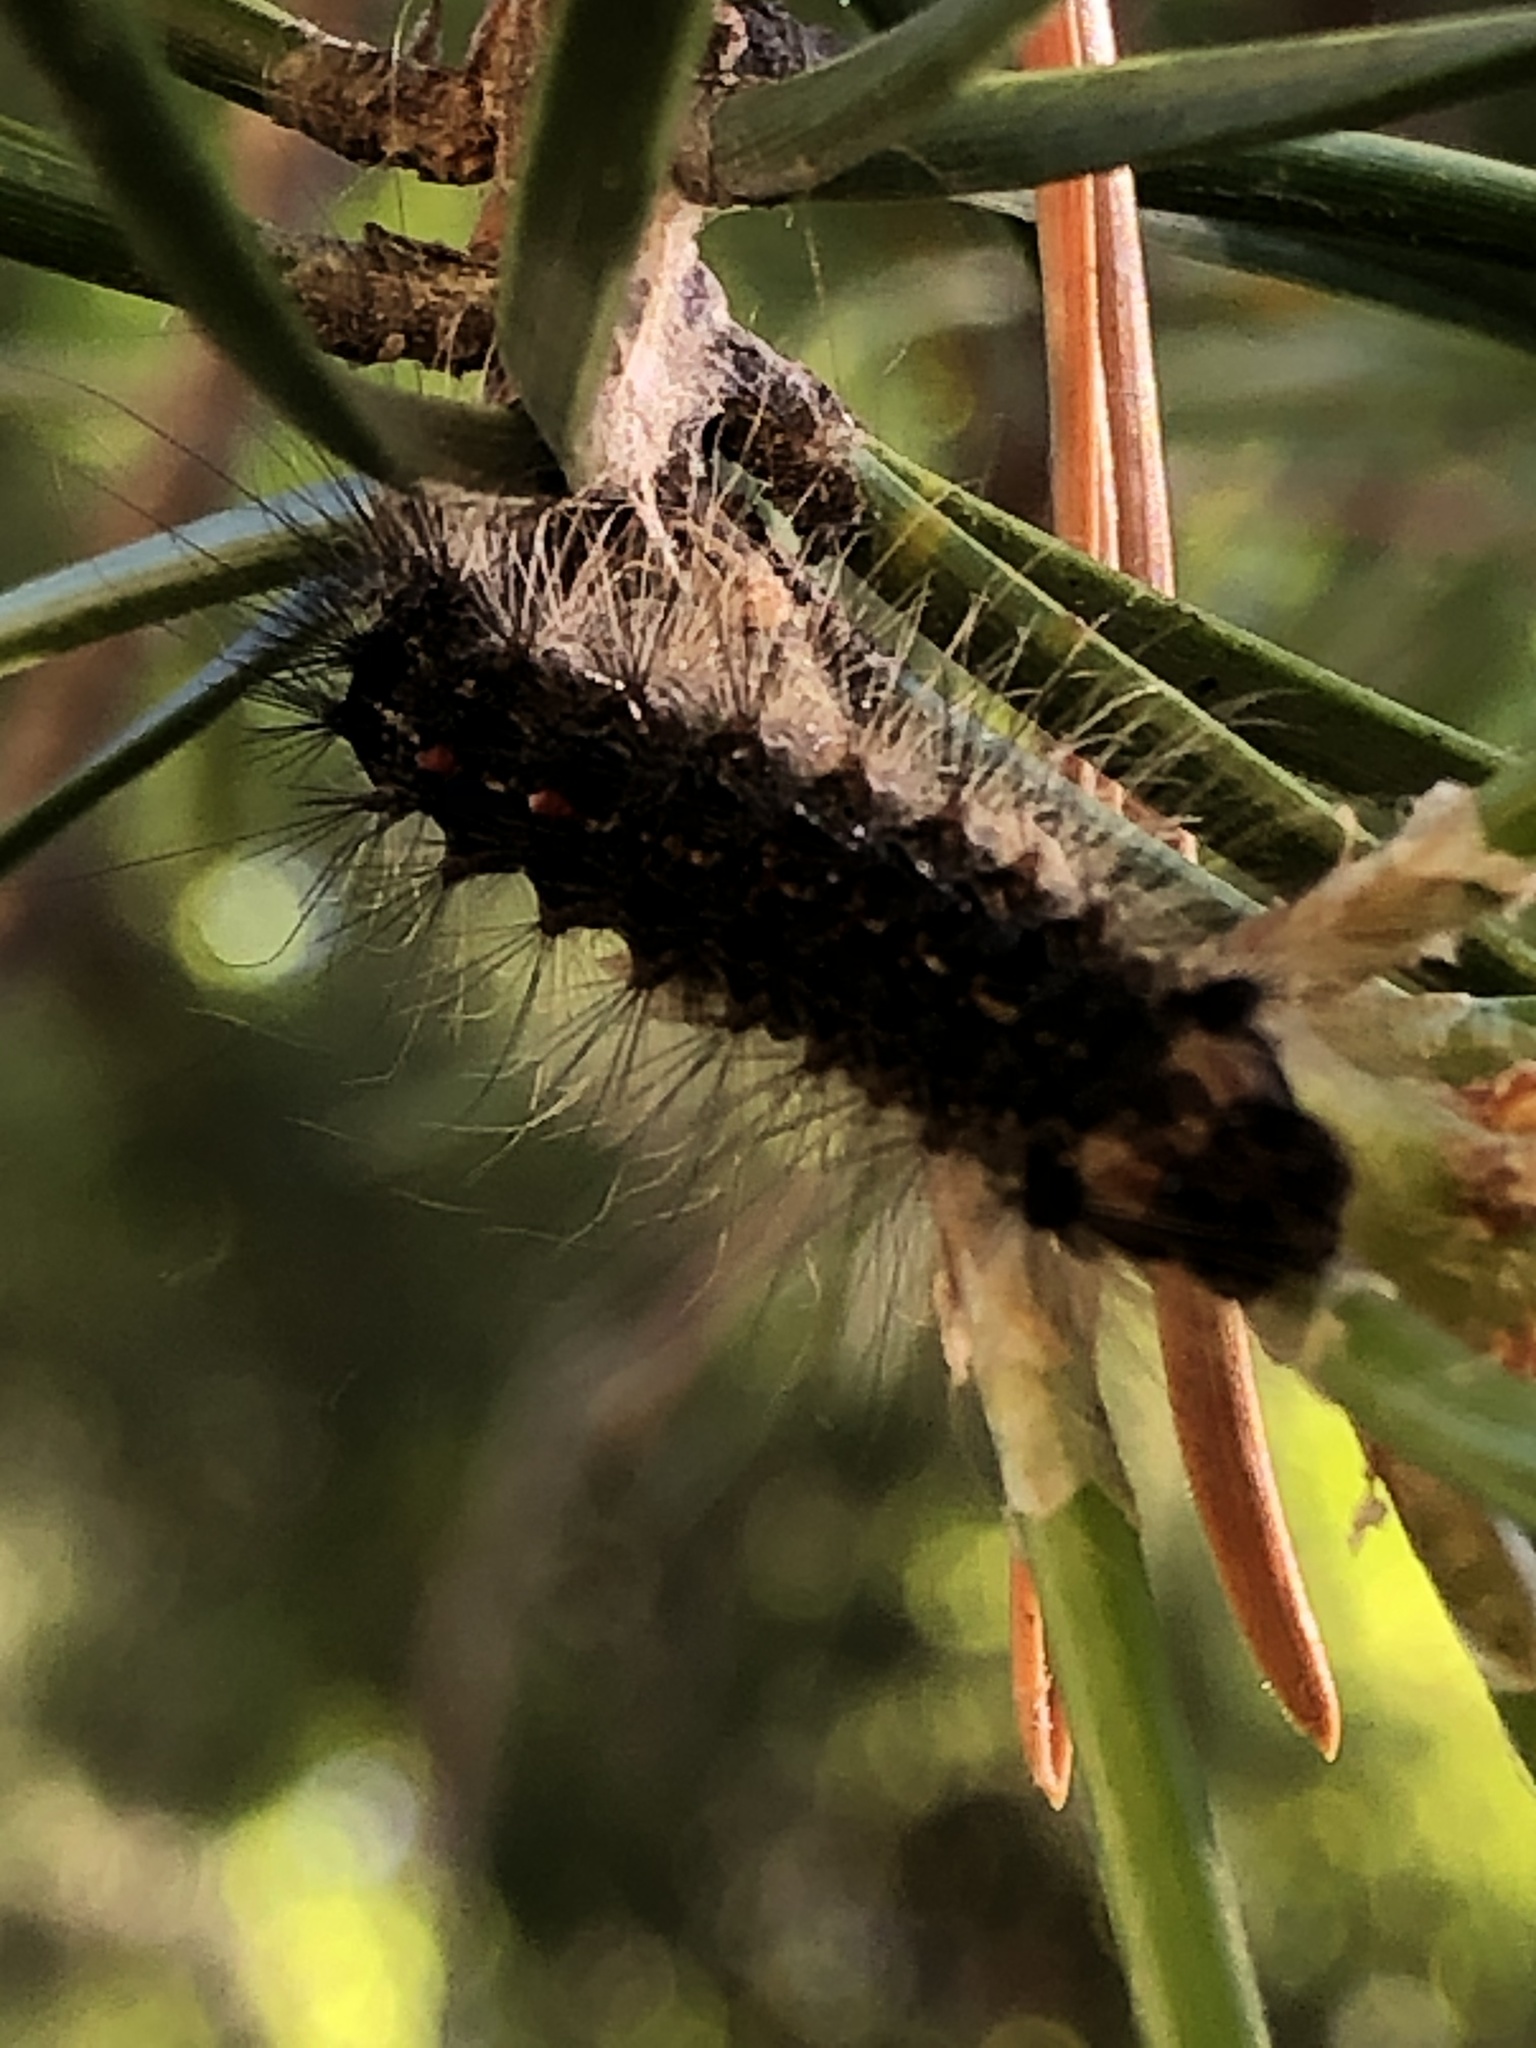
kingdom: Animalia
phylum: Arthropoda
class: Insecta
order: Lepidoptera
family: Erebidae
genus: Lymantria
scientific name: Lymantria dispar
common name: Gypsy moth
